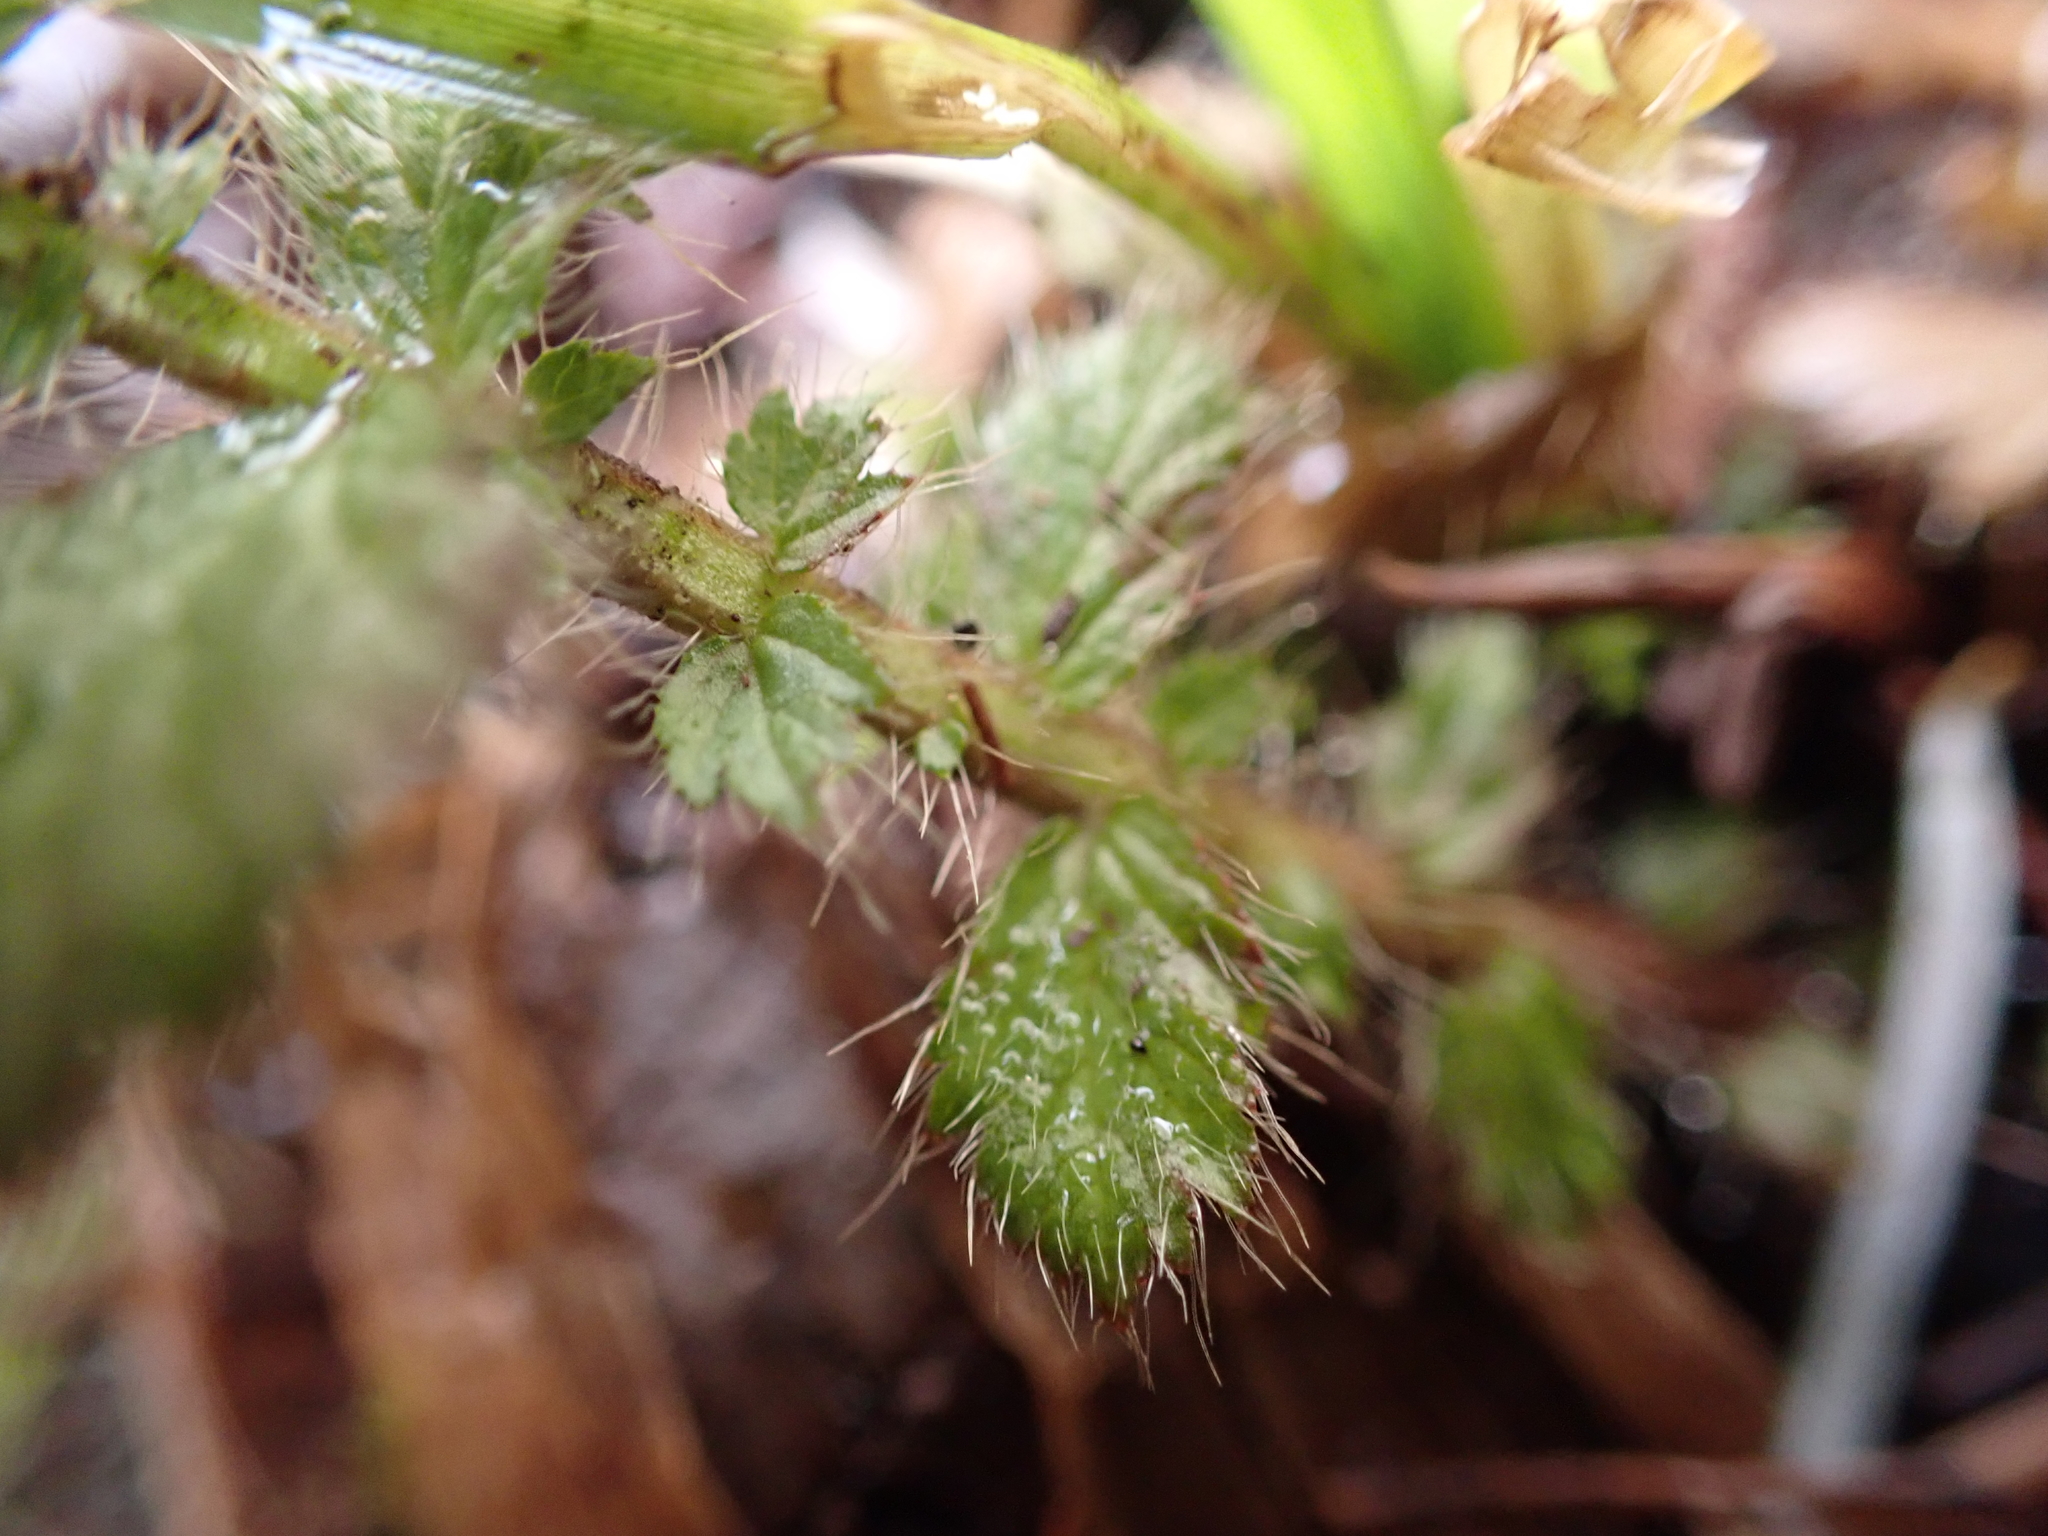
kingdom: Plantae
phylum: Tracheophyta
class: Magnoliopsida
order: Rosales
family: Rosaceae
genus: Geum
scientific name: Geum macrophyllum
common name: Large-leaved avens
